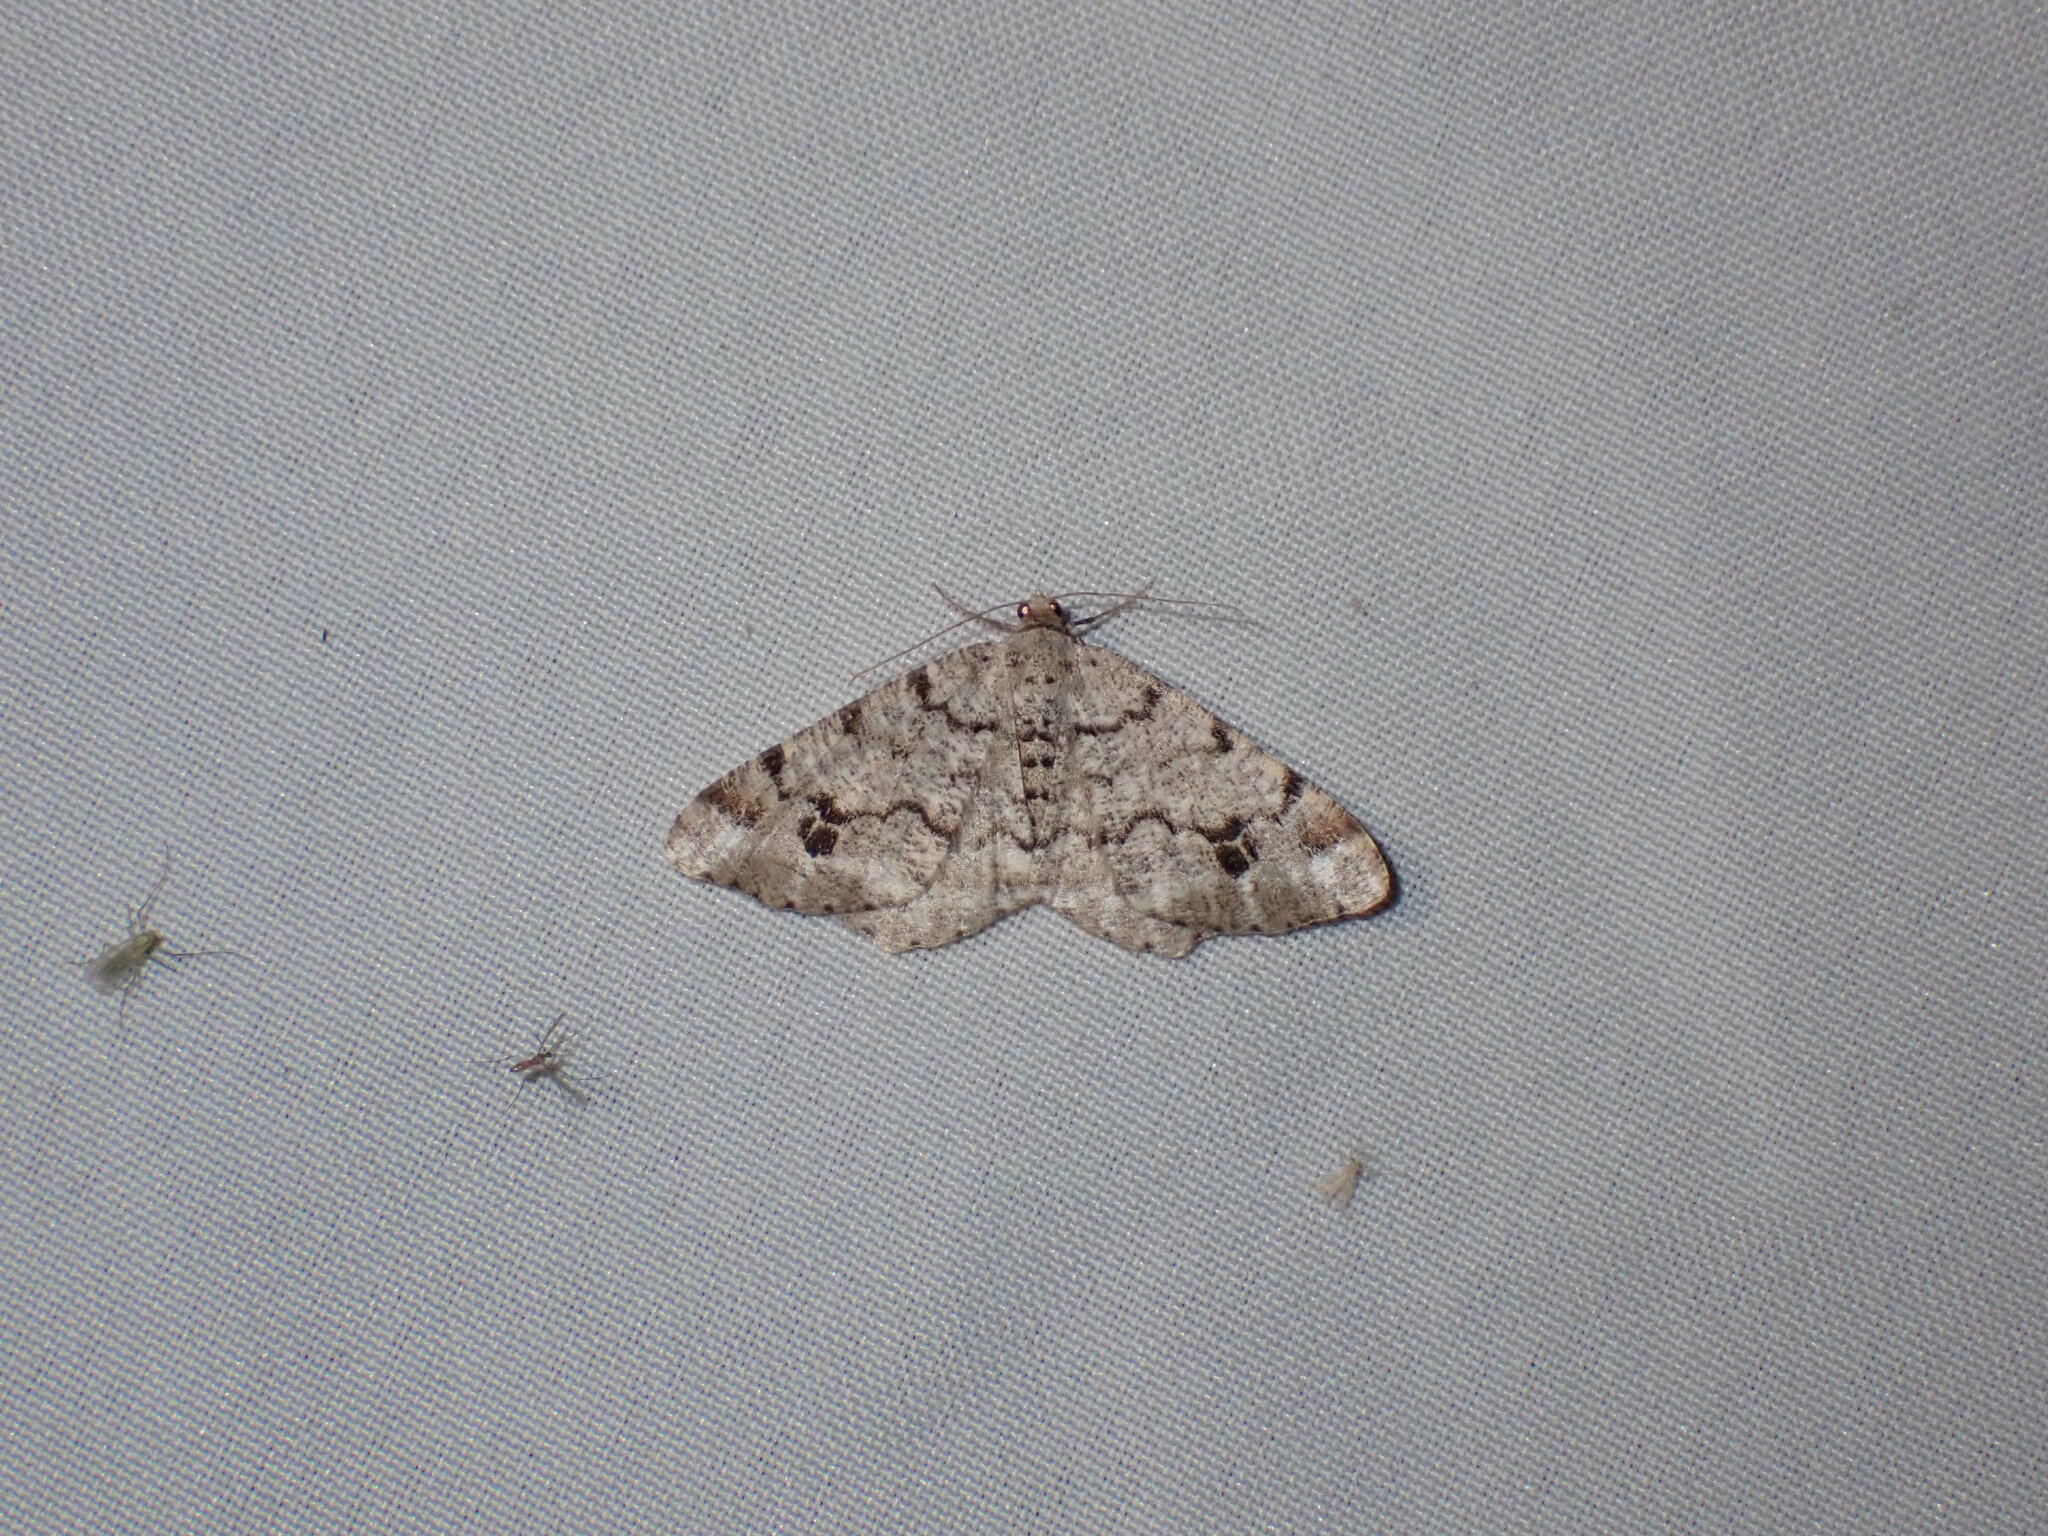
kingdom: Animalia
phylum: Arthropoda
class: Insecta
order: Lepidoptera
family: Geometridae
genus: Macaria
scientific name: Macaria signaria
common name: Dusky peacock
